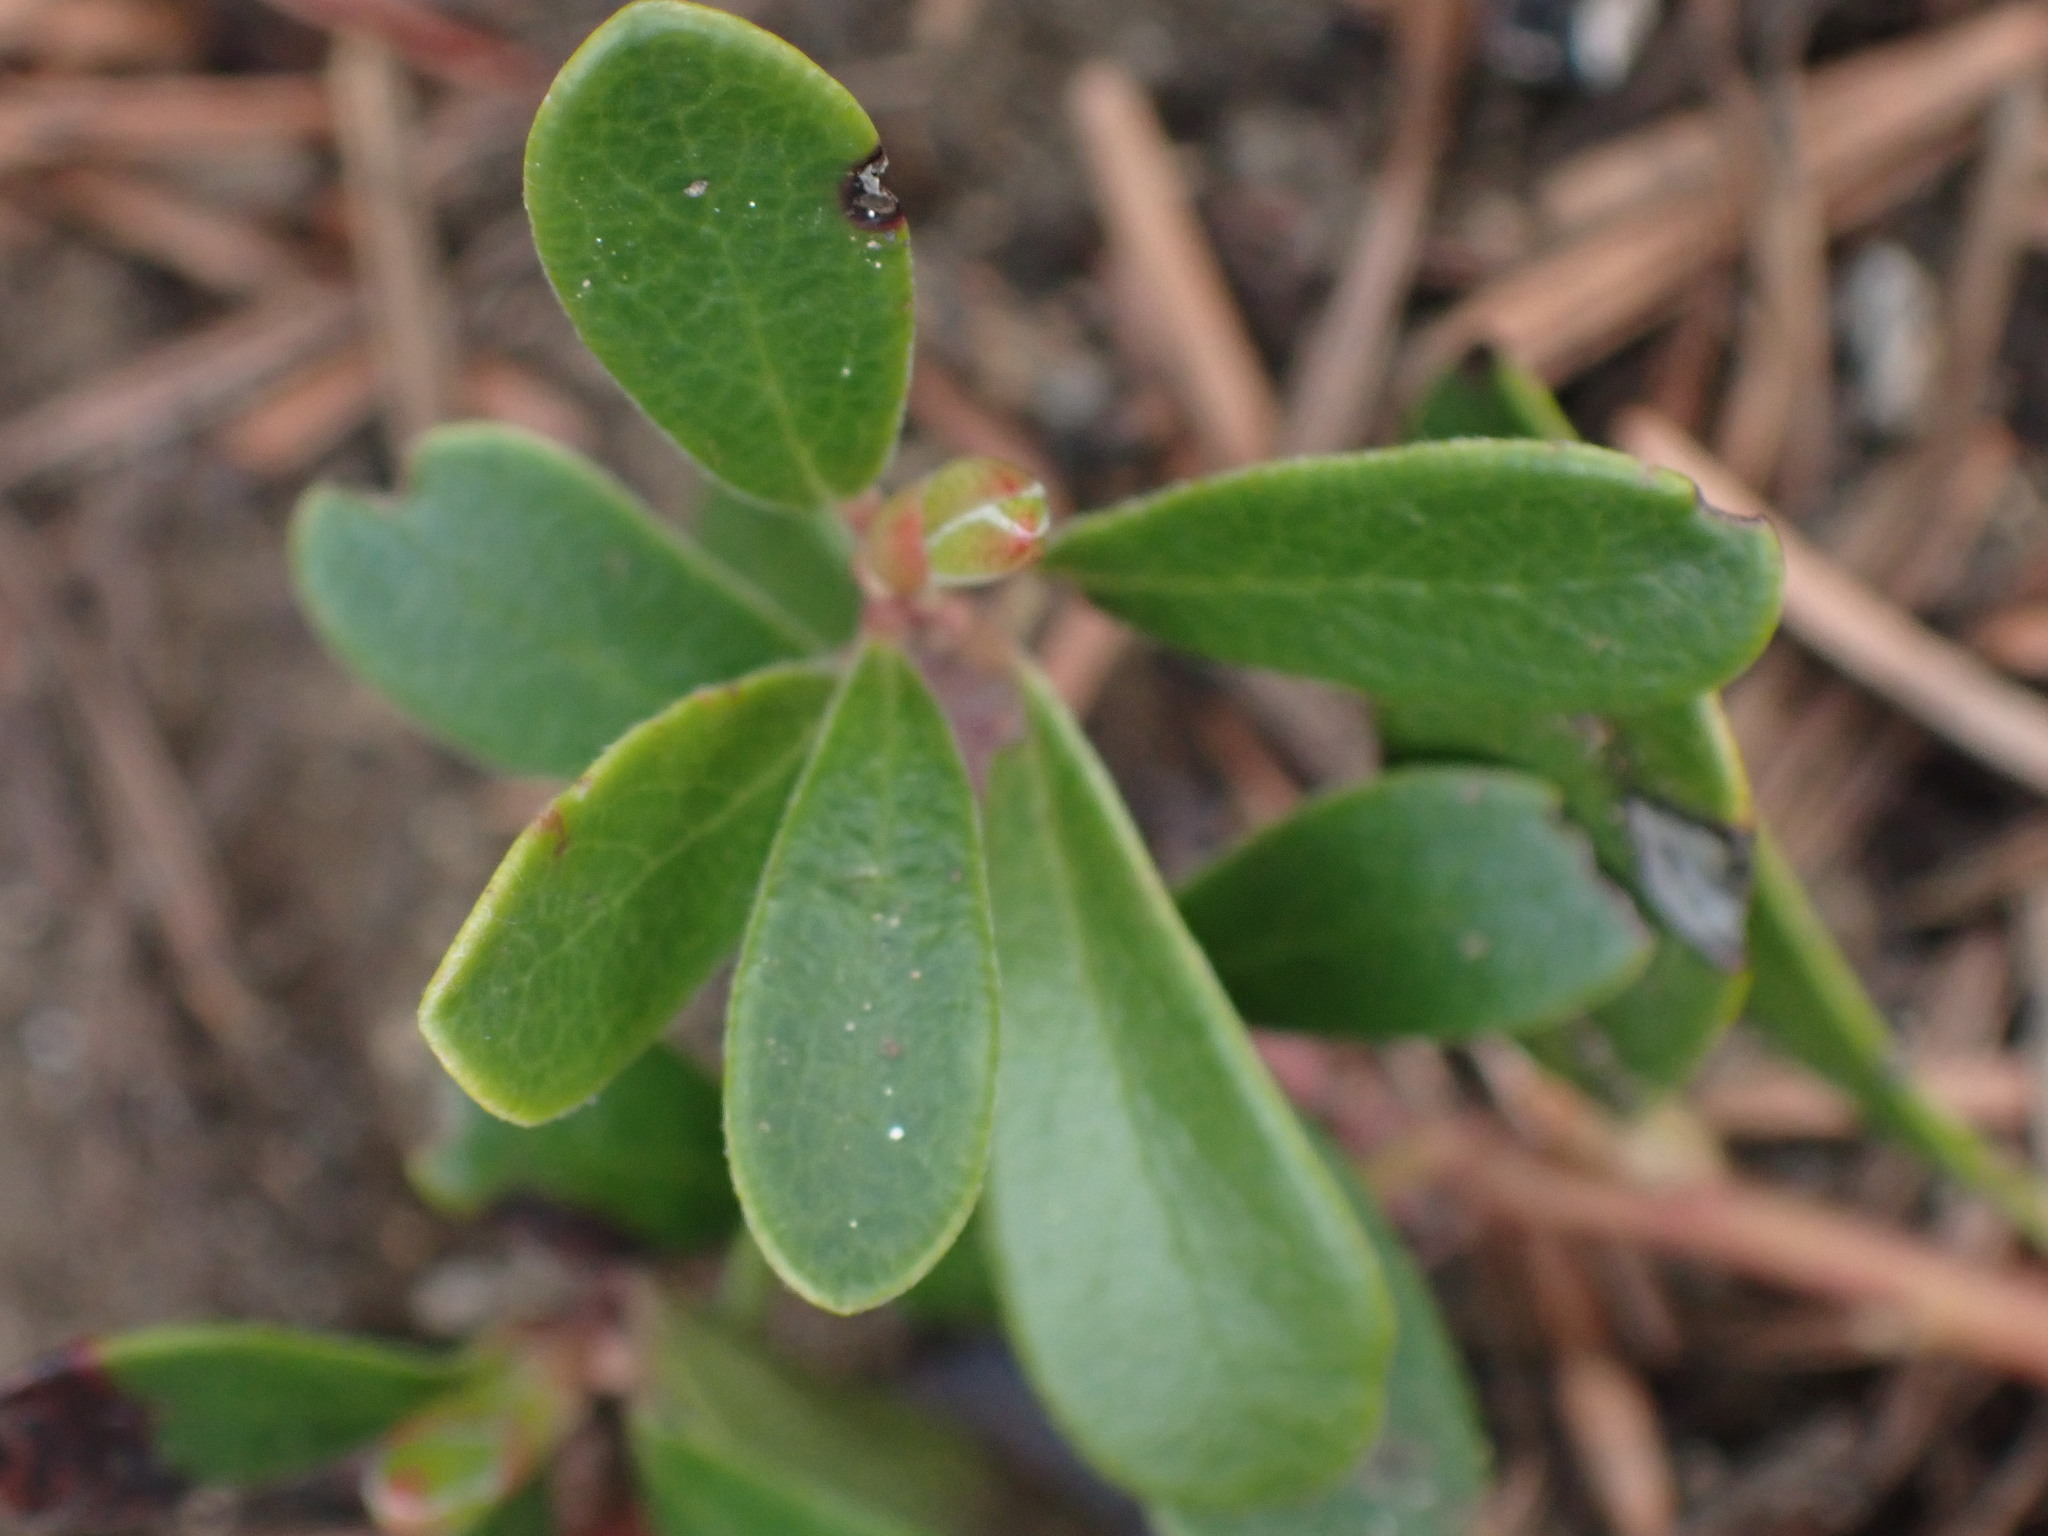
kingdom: Plantae
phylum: Tracheophyta
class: Magnoliopsida
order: Ericales
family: Ericaceae
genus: Arctostaphylos
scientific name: Arctostaphylos uva-ursi
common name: Bearberry
